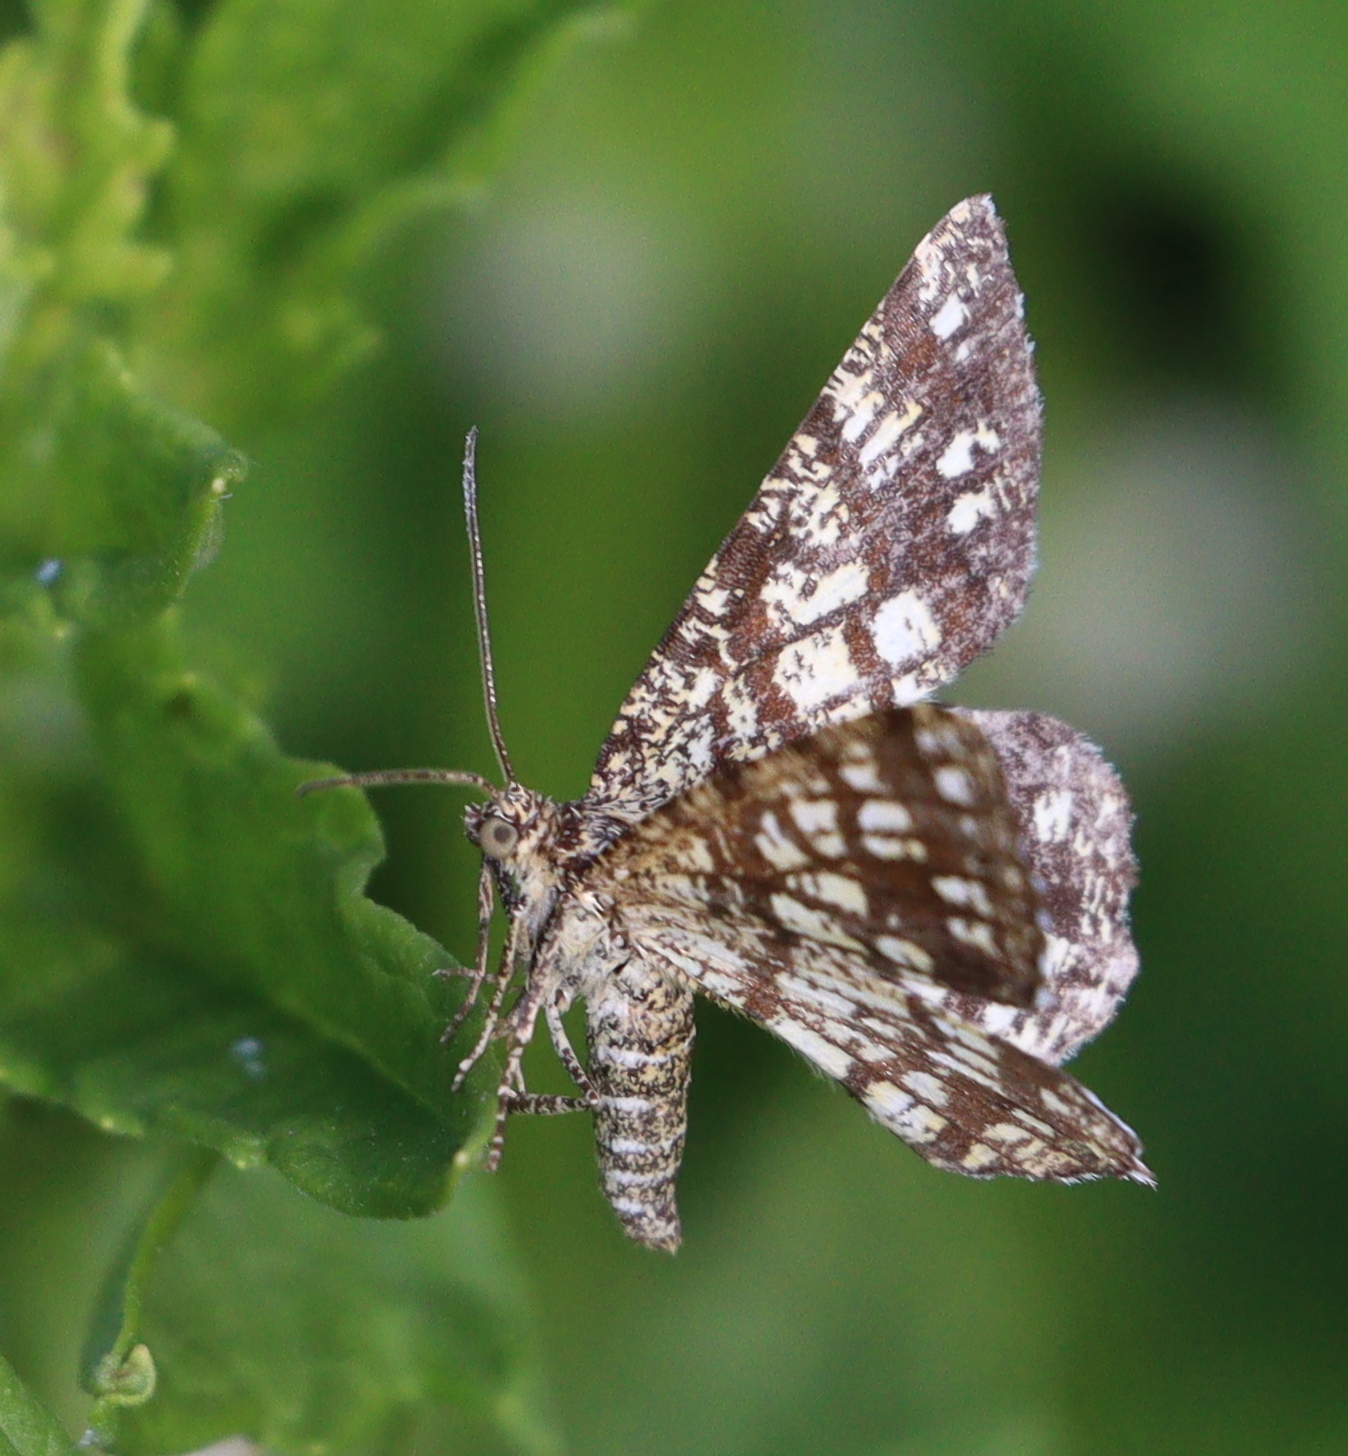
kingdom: Animalia
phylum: Arthropoda
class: Insecta
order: Lepidoptera
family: Geometridae
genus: Chiasmia
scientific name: Chiasmia clathrata
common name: Latticed heath
